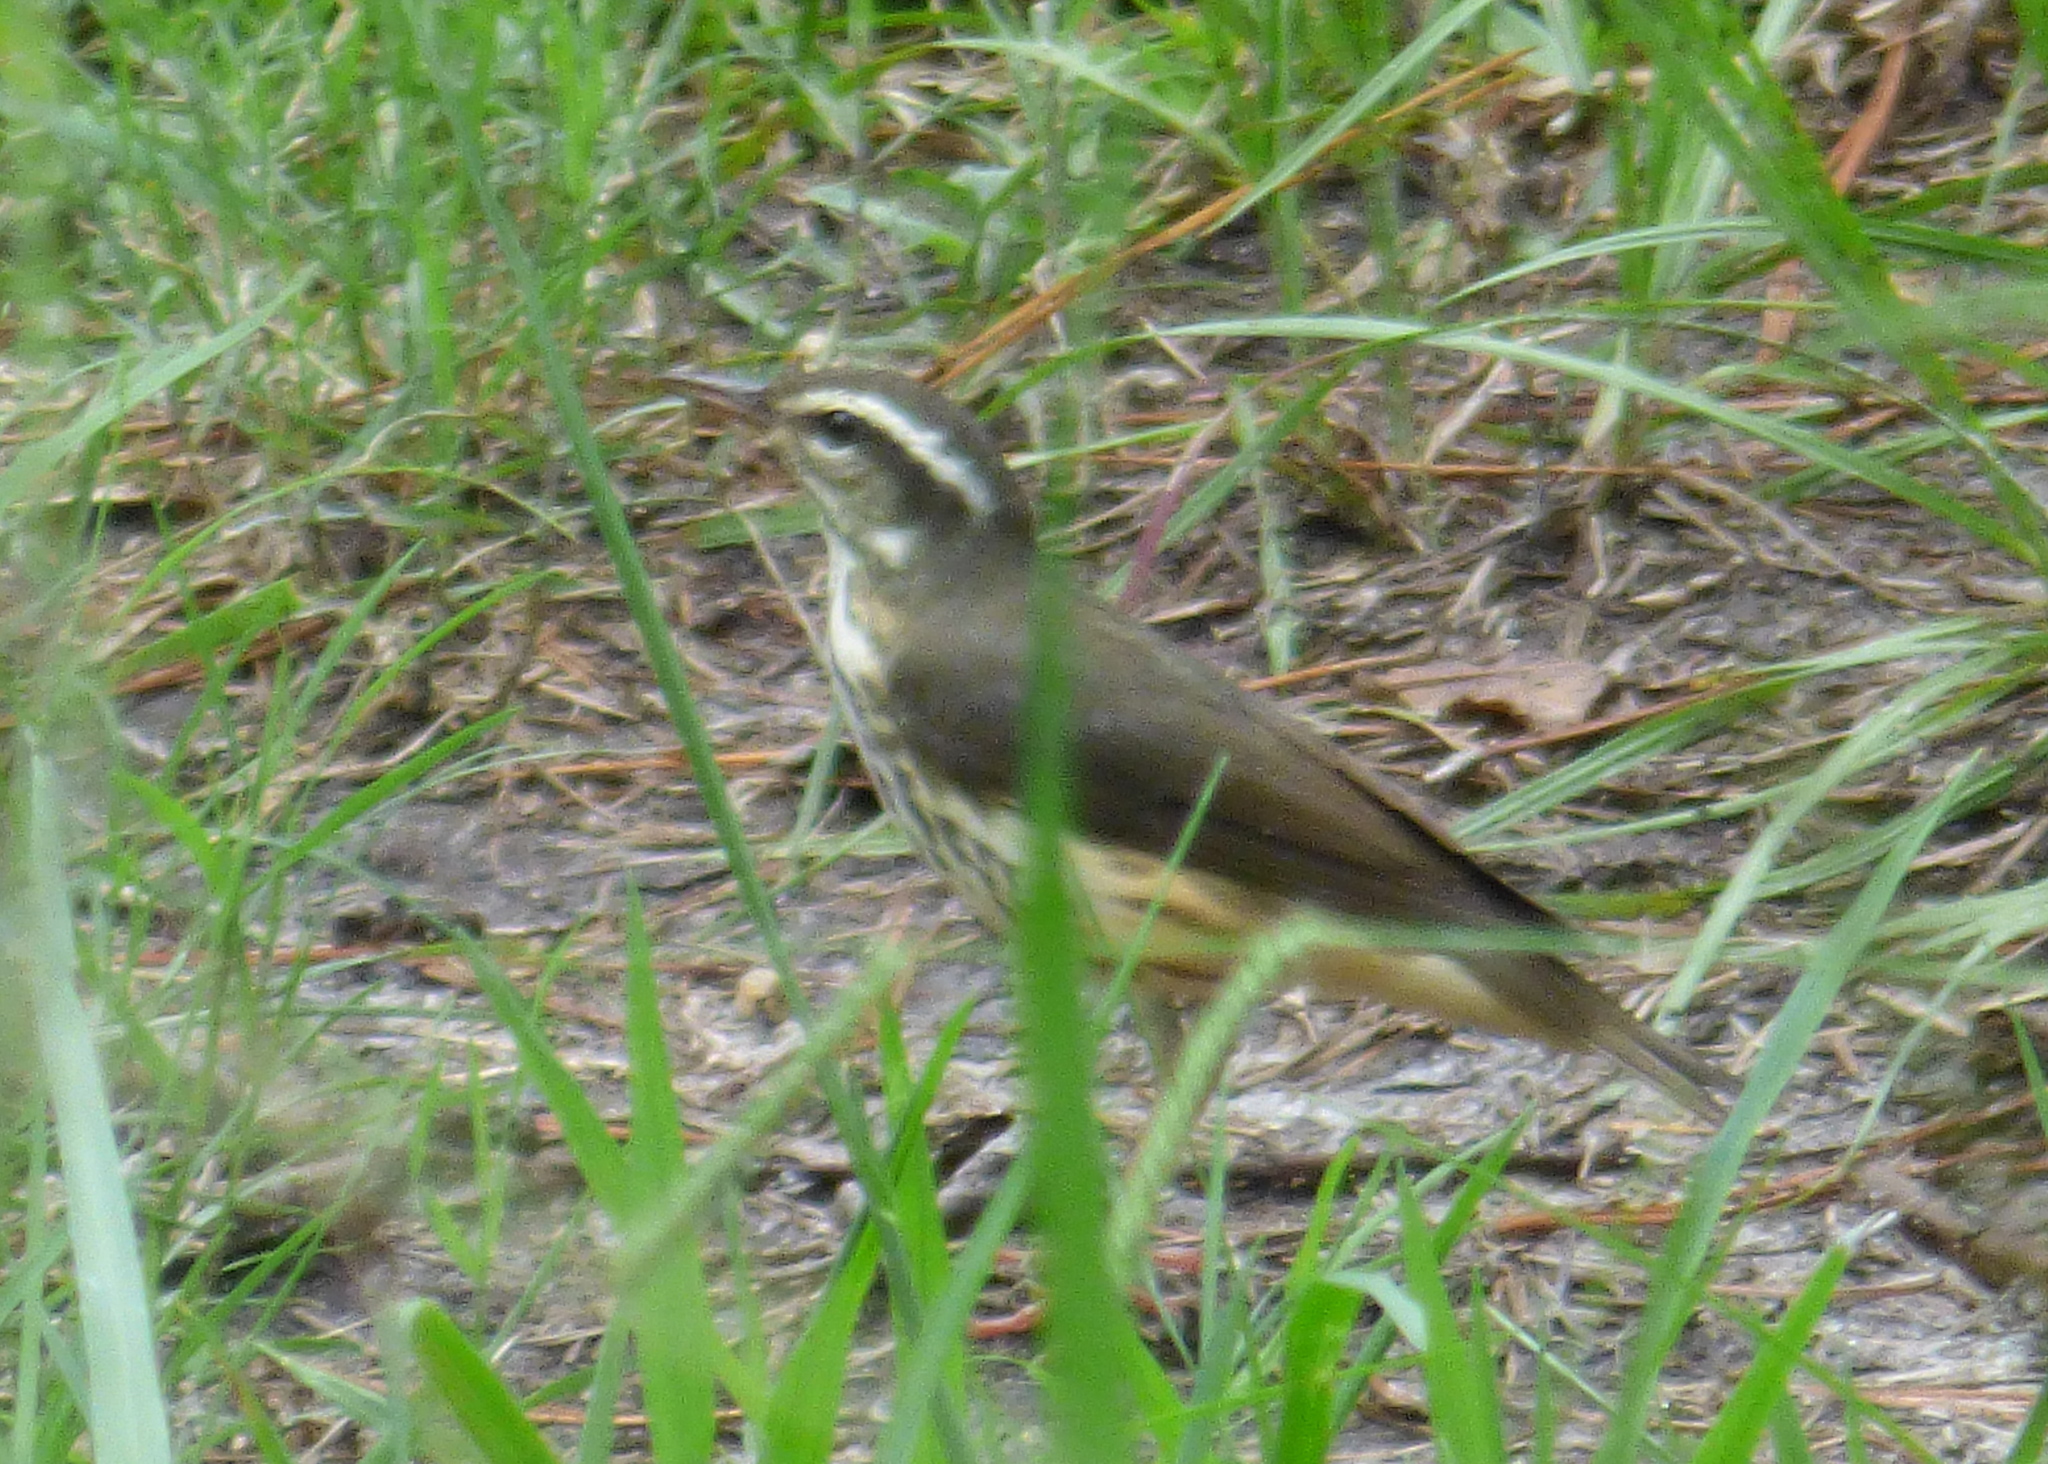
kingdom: Animalia
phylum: Chordata
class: Aves
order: Passeriformes
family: Parulidae
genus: Parkesia
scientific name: Parkesia motacilla
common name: Louisiana waterthrush
